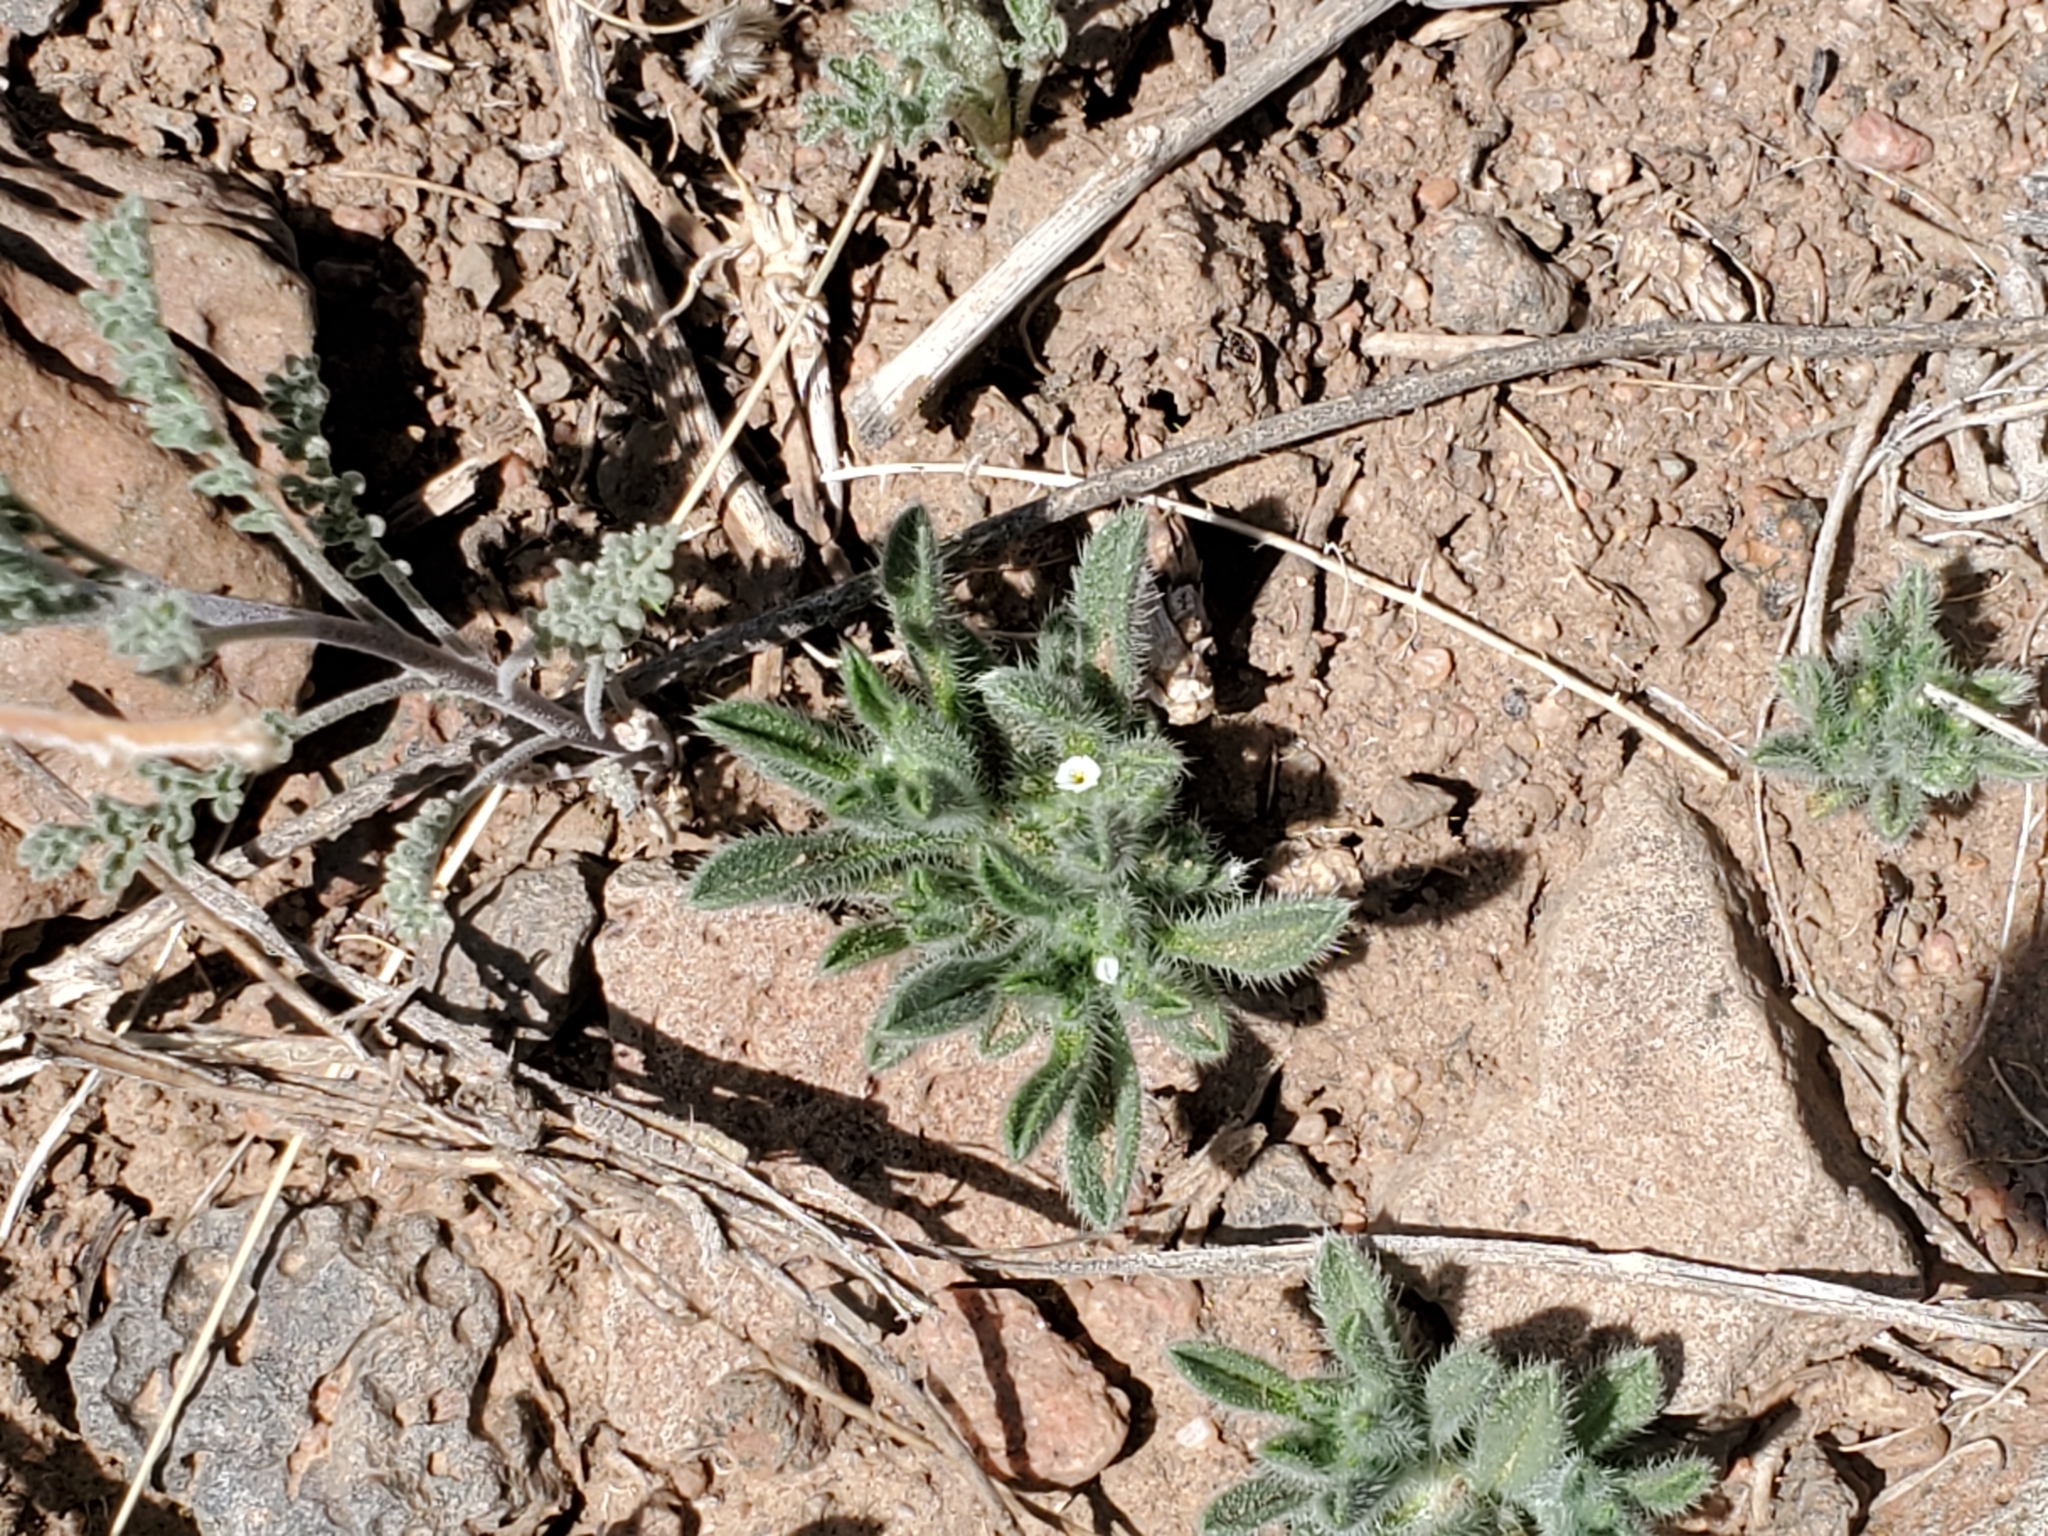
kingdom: Plantae
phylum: Tracheophyta
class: Magnoliopsida
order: Boraginales
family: Boraginaceae
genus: Cryptantha
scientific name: Cryptantha crassisepala
